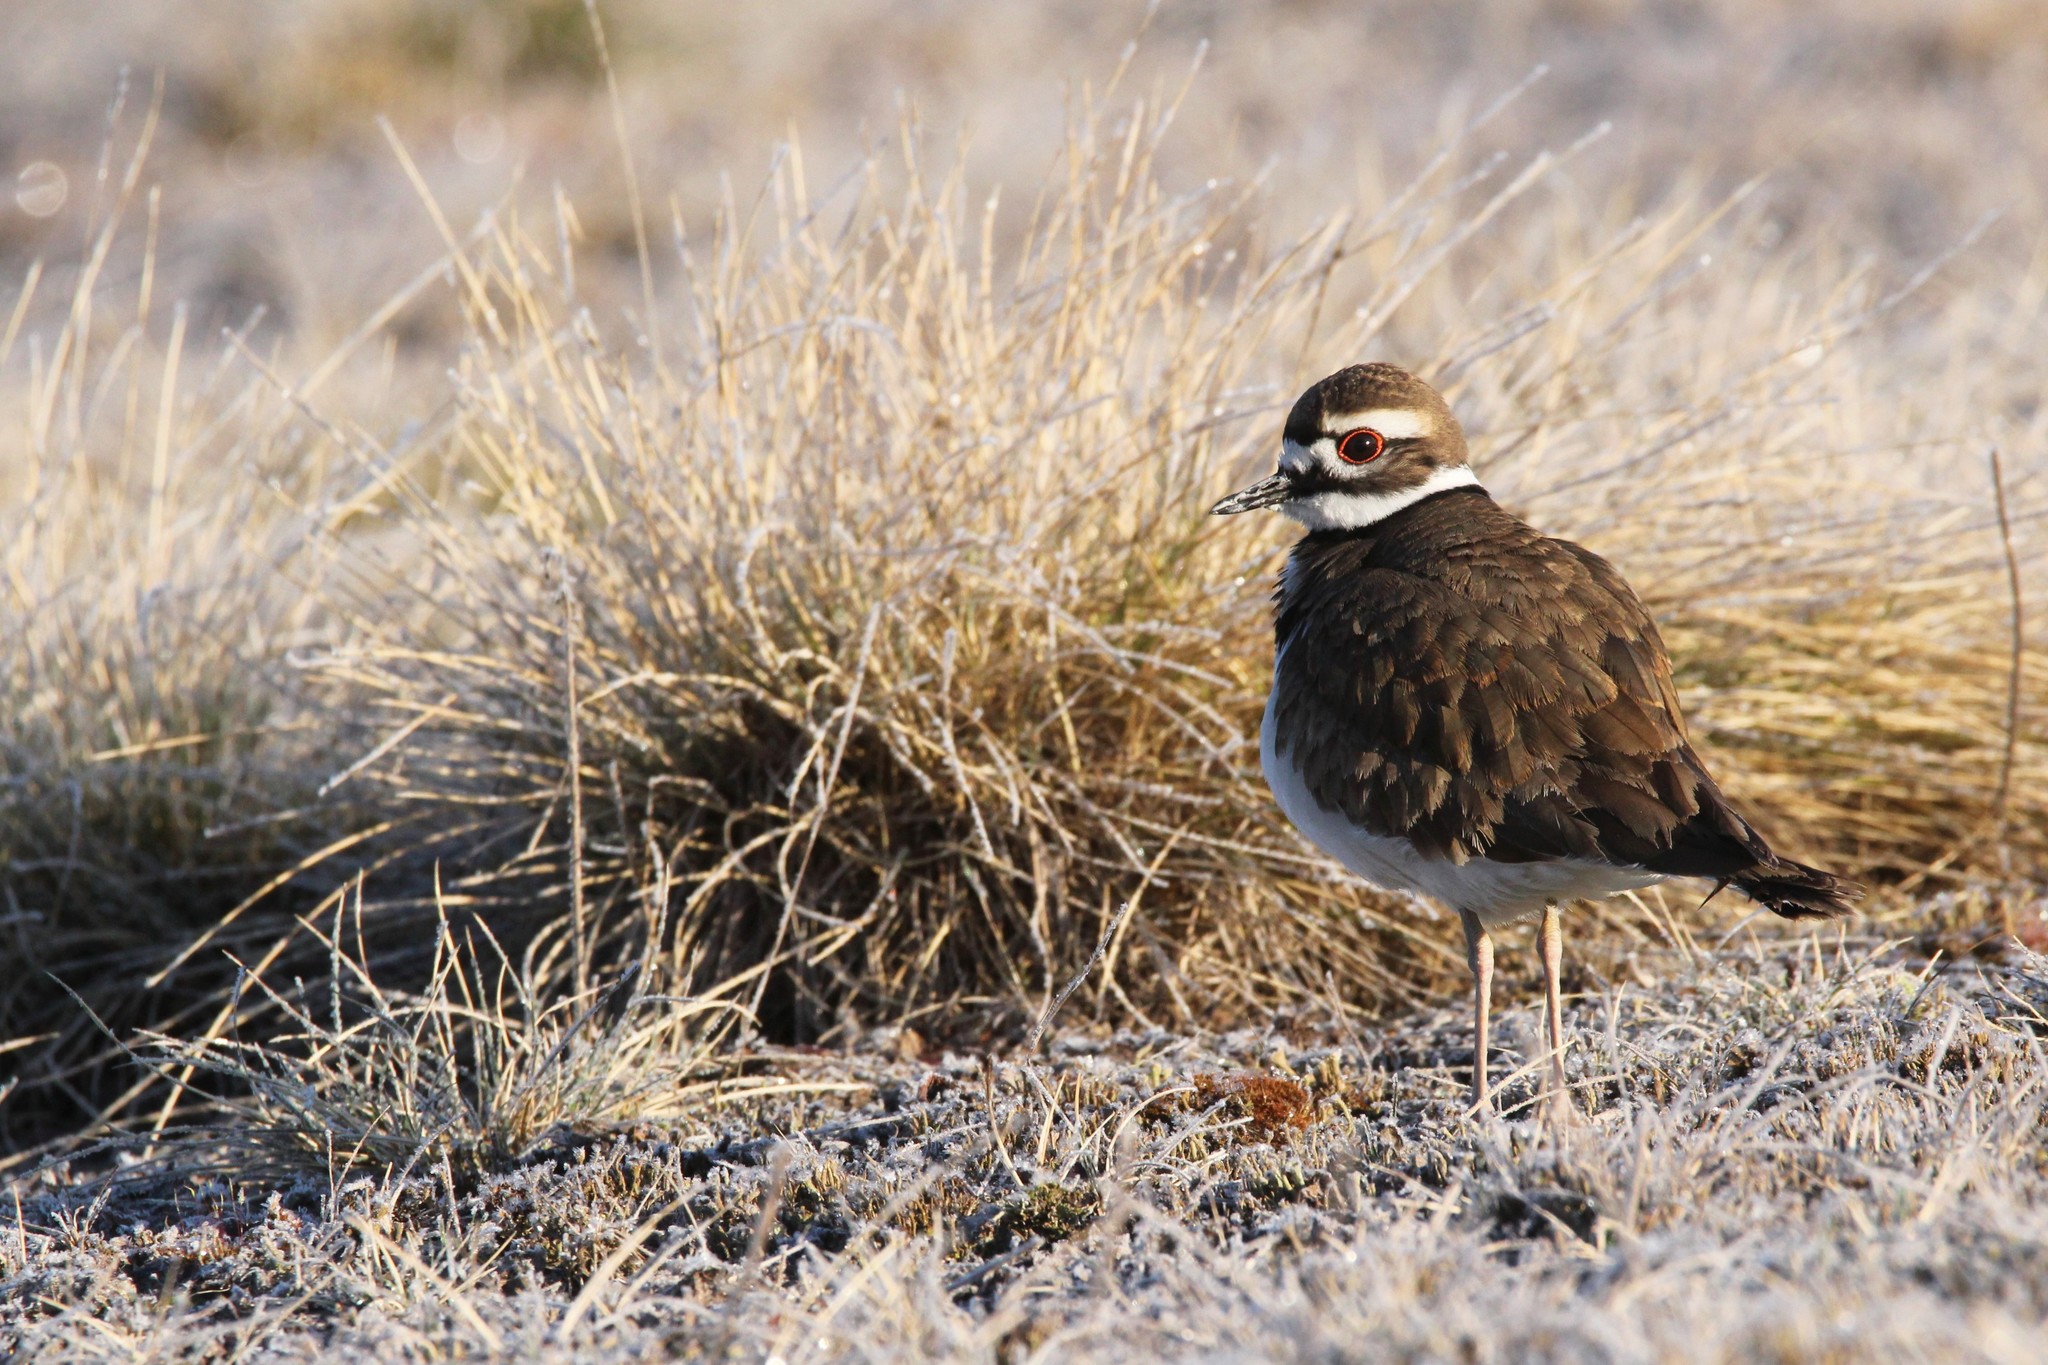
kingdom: Animalia
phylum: Chordata
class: Aves
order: Charadriiformes
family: Charadriidae
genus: Charadrius
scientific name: Charadrius vociferus
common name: Killdeer
